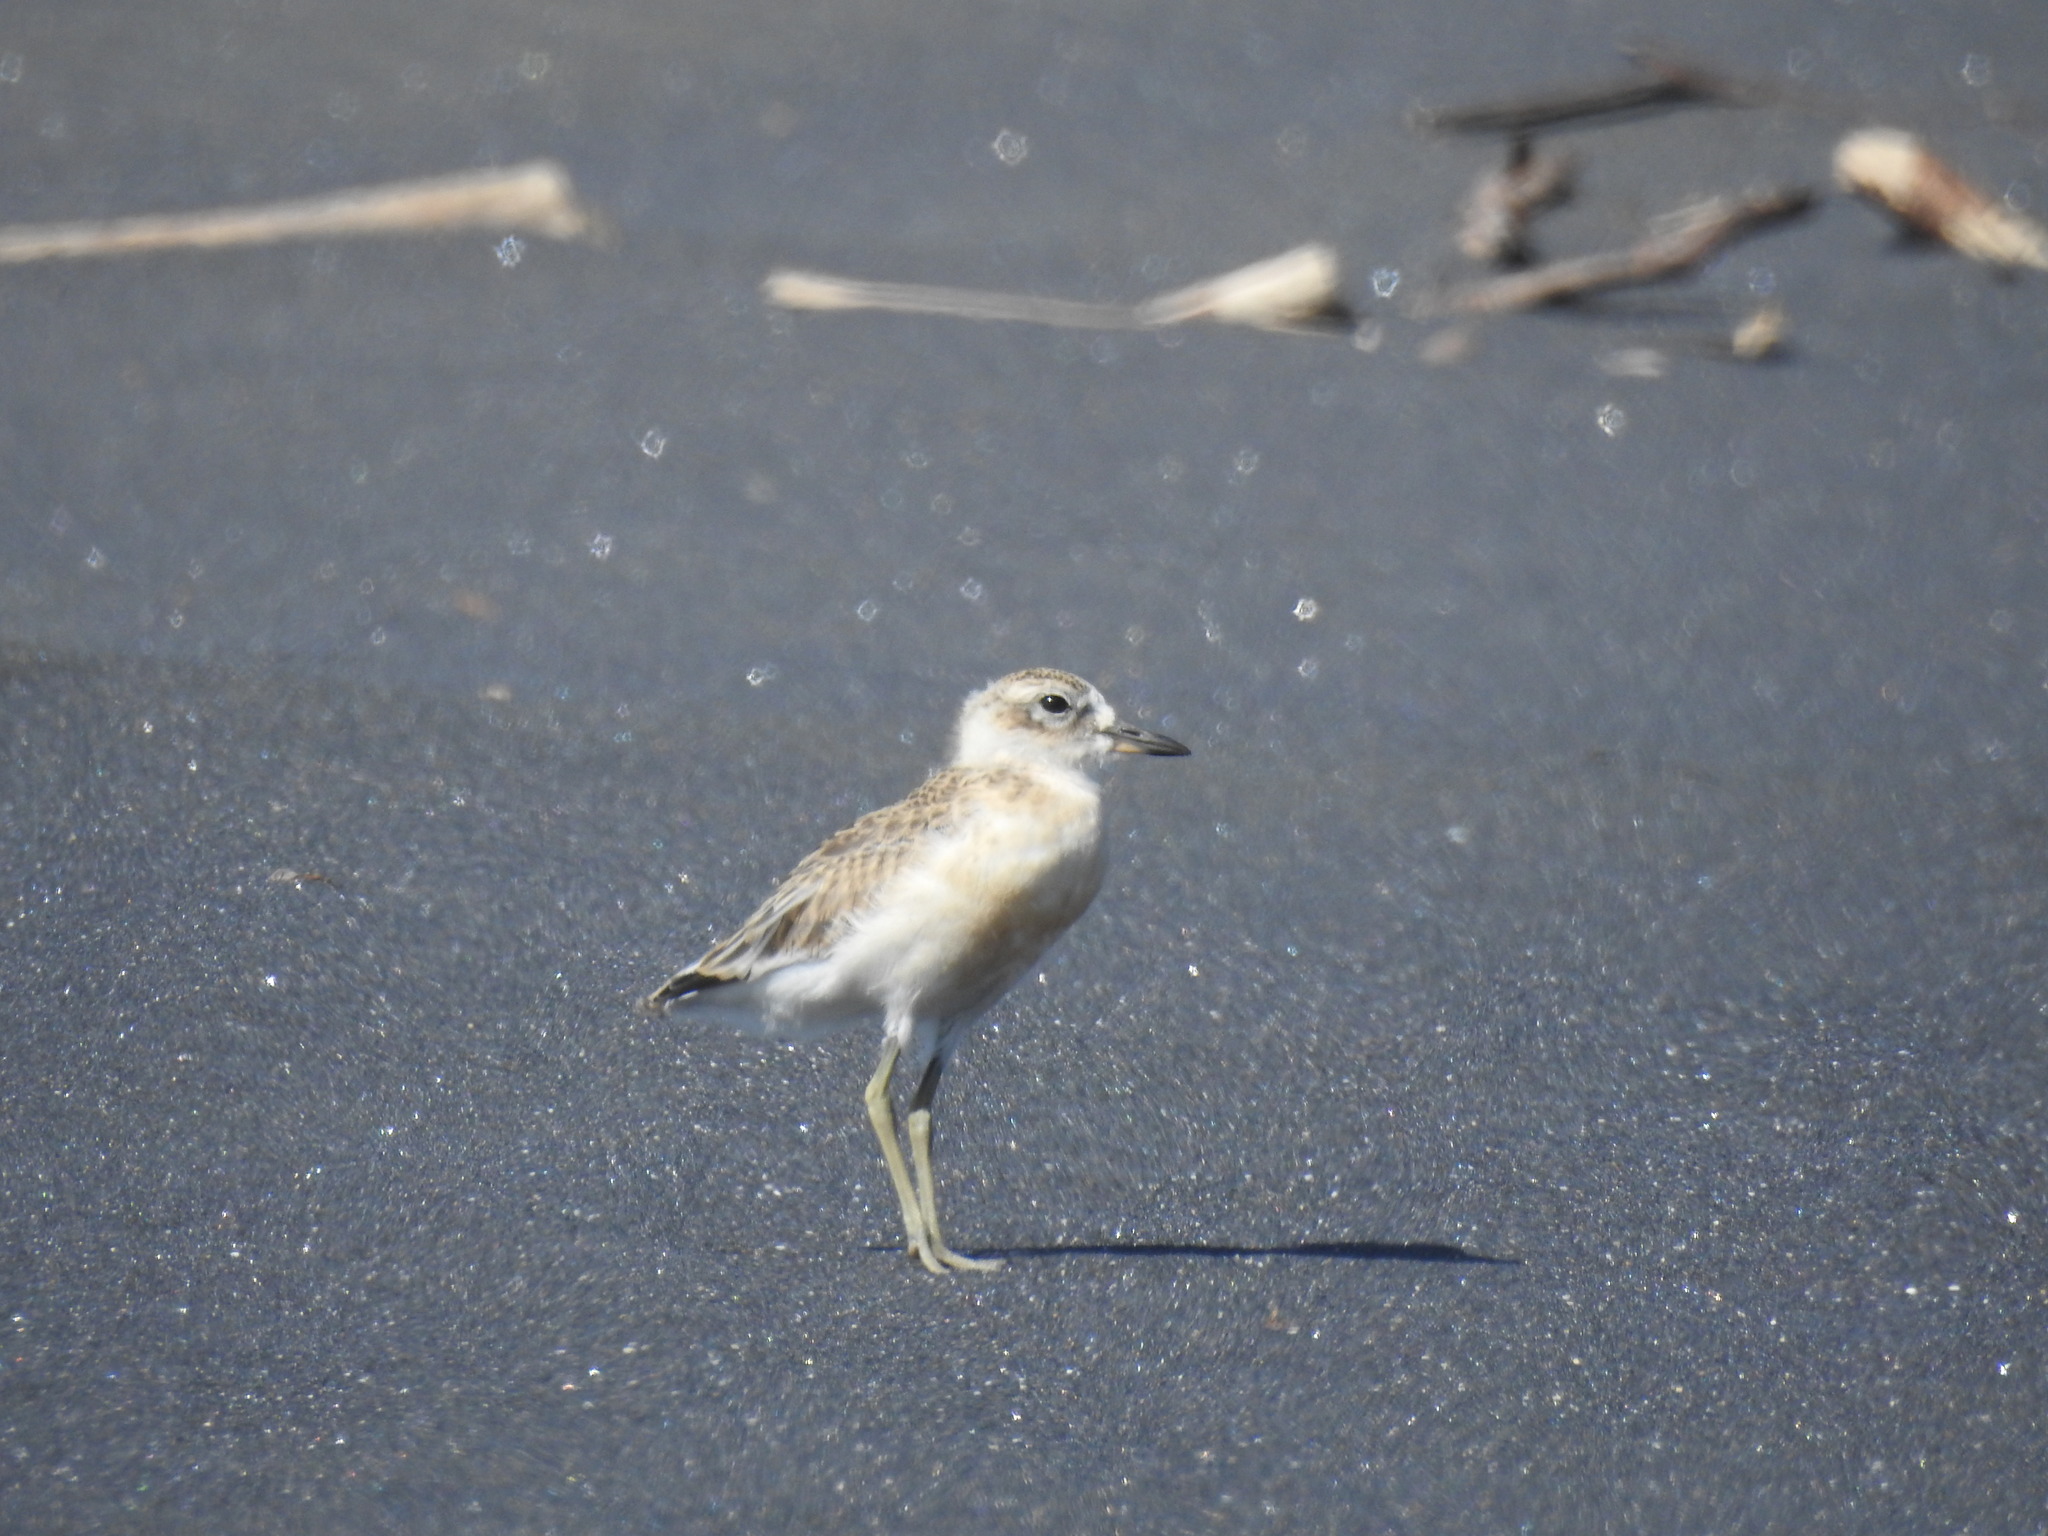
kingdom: Animalia
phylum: Chordata
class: Aves
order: Charadriiformes
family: Charadriidae
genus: Anarhynchus
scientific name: Anarhynchus
